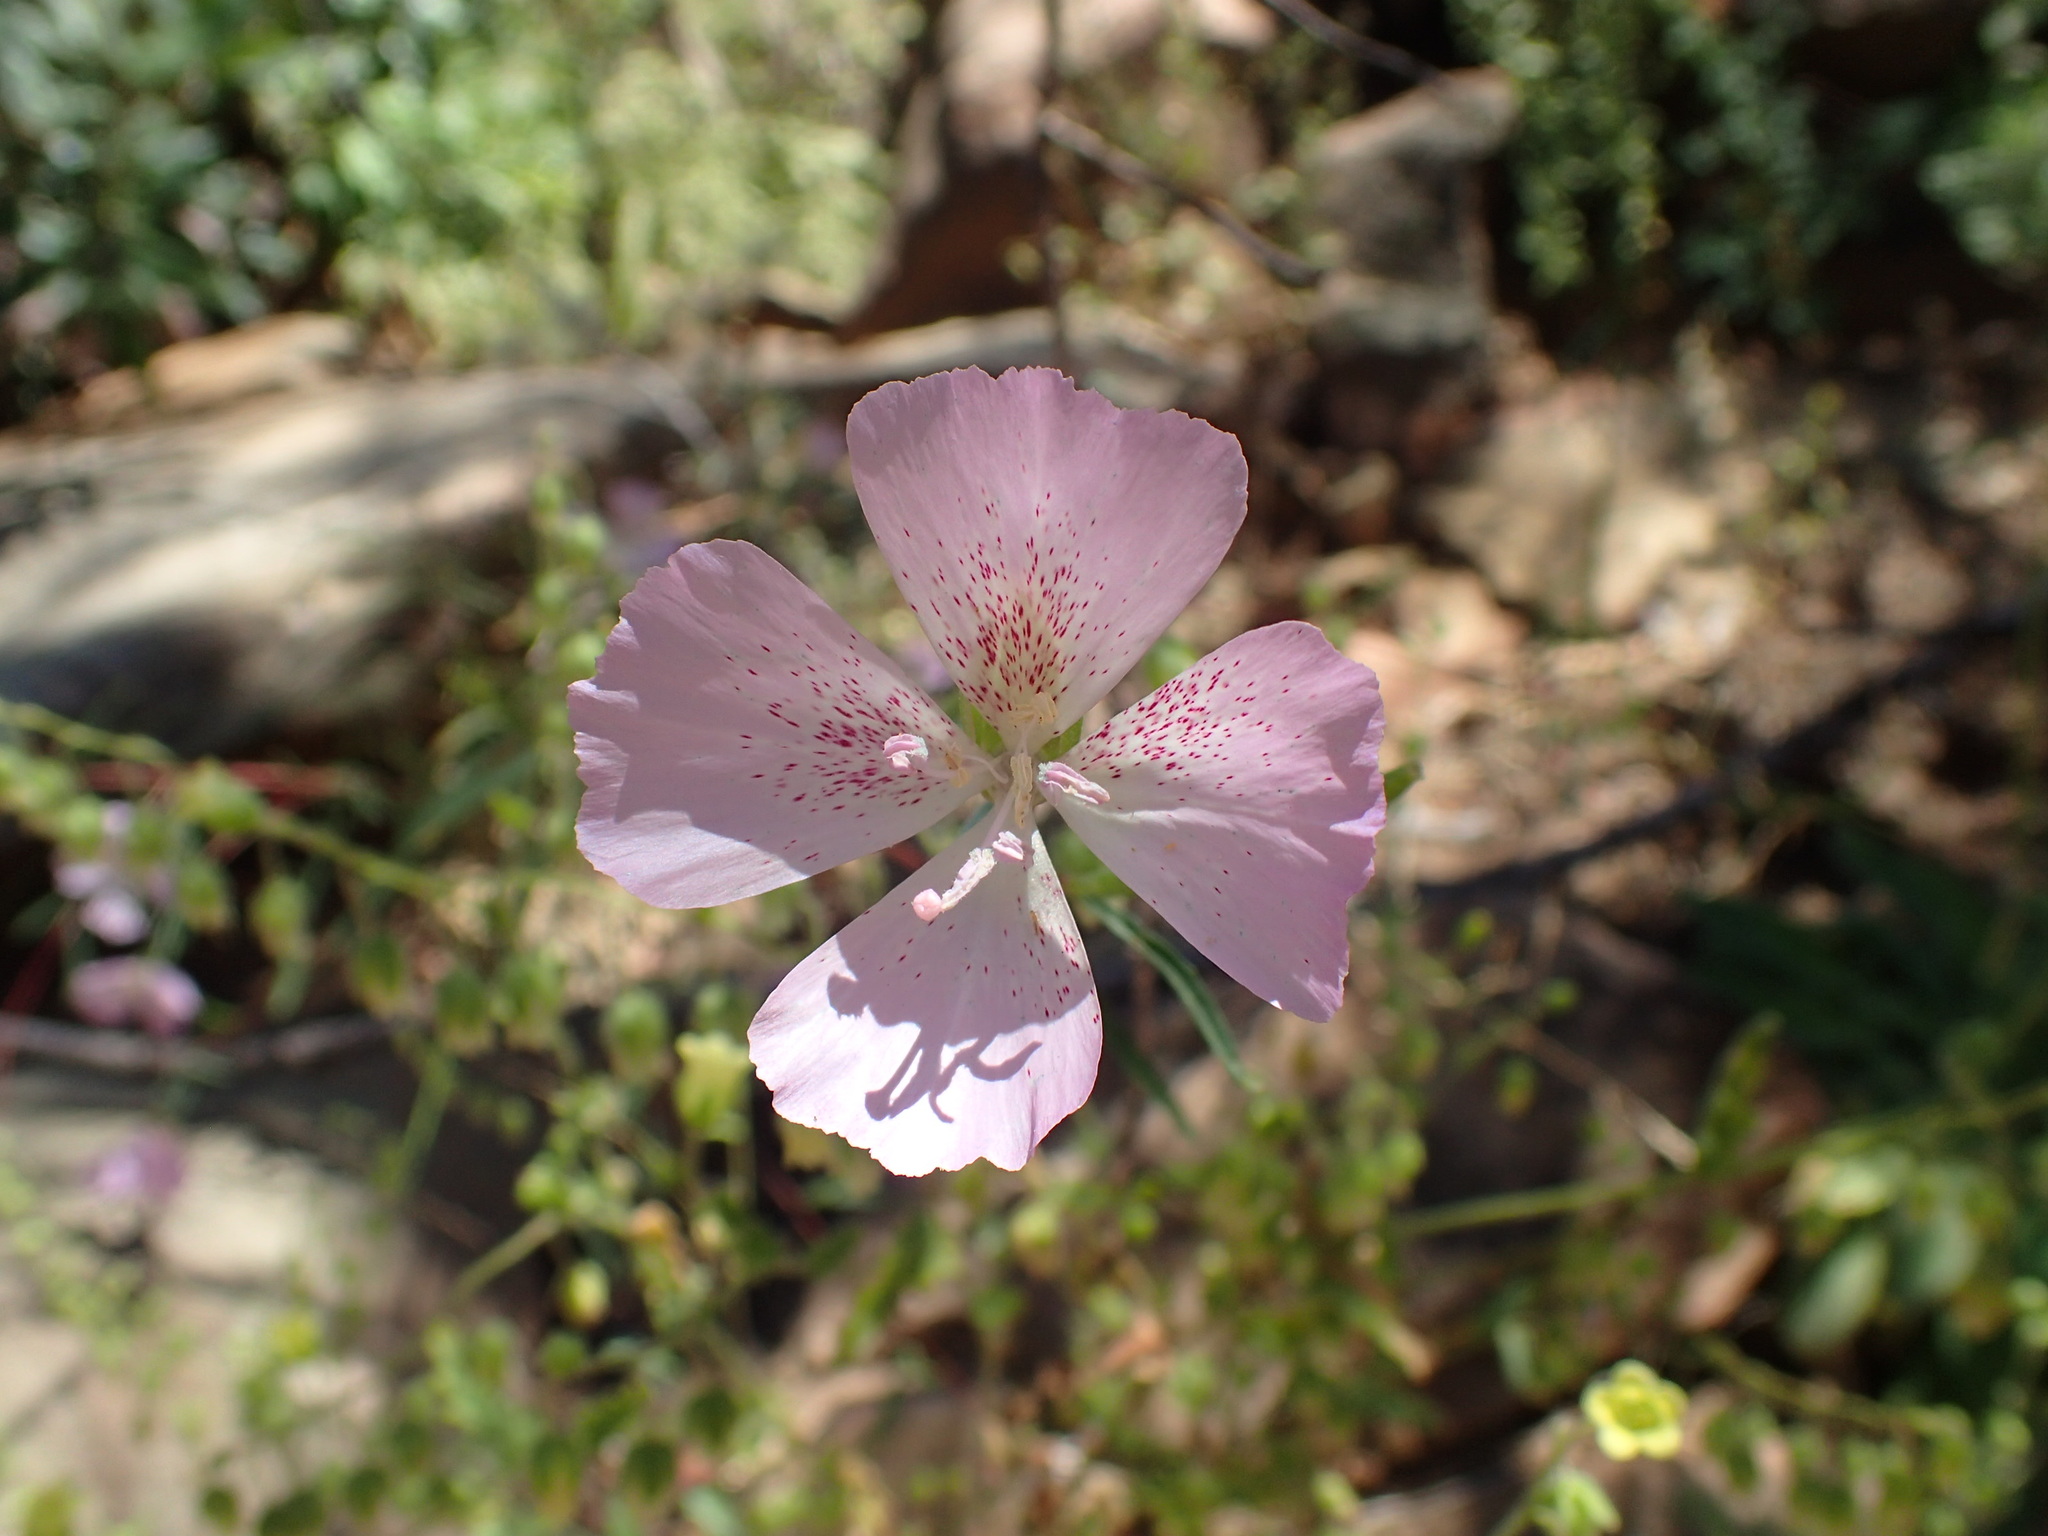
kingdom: Plantae
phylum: Tracheophyta
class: Magnoliopsida
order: Myrtales
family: Onagraceae
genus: Clarkia
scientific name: Clarkia bottae
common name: Punch-bowl godetia
